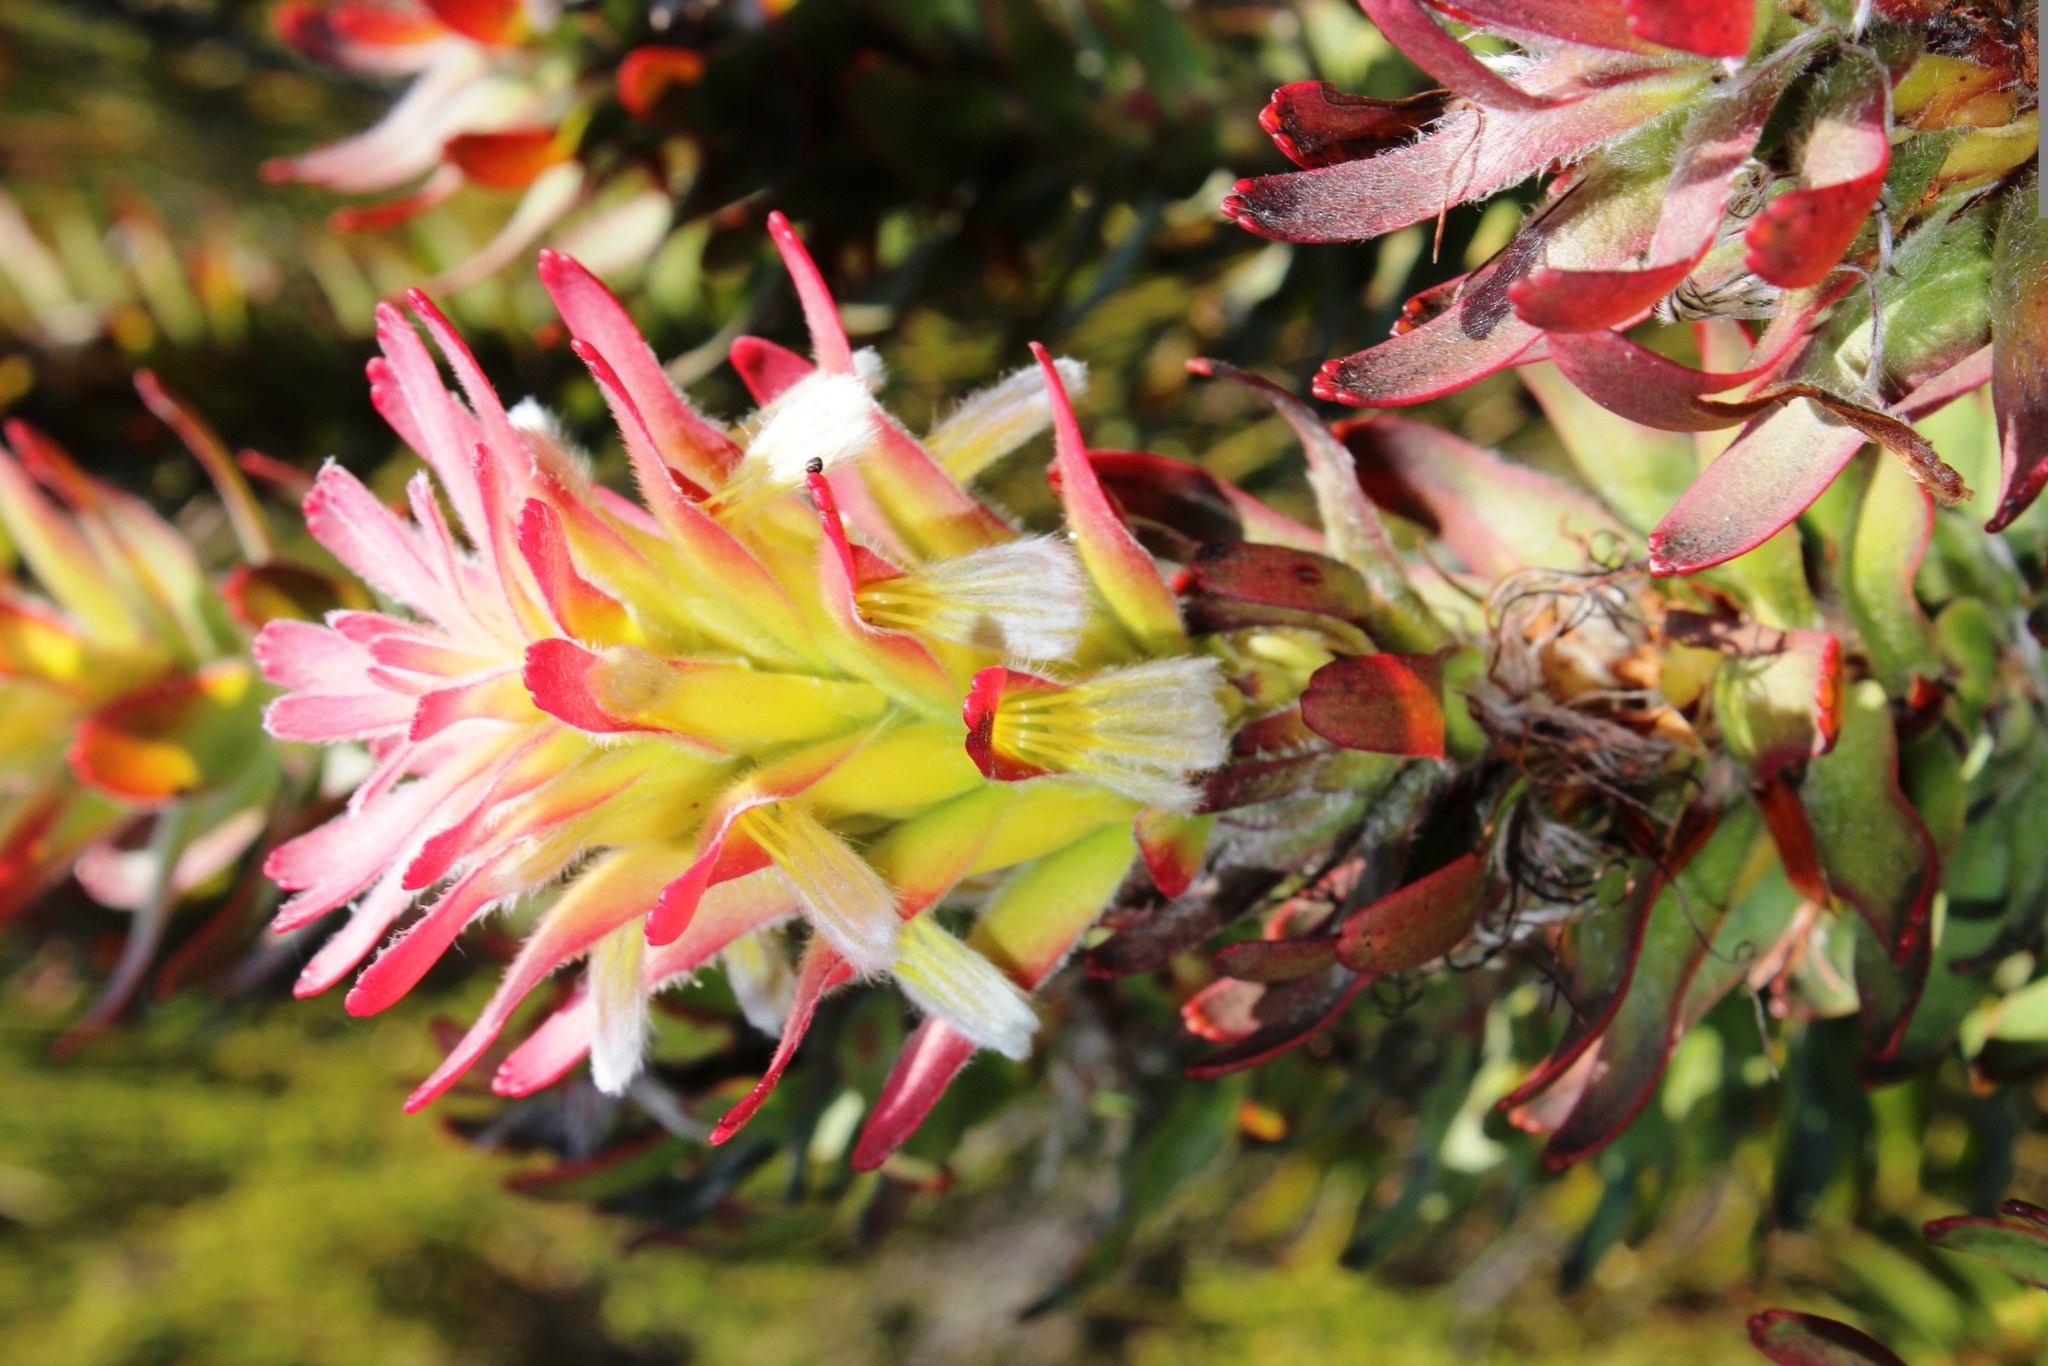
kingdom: Plantae
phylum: Tracheophyta
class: Magnoliopsida
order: Proteales
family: Proteaceae
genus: Mimetes
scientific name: Mimetes cucullatus
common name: Common pagoda
